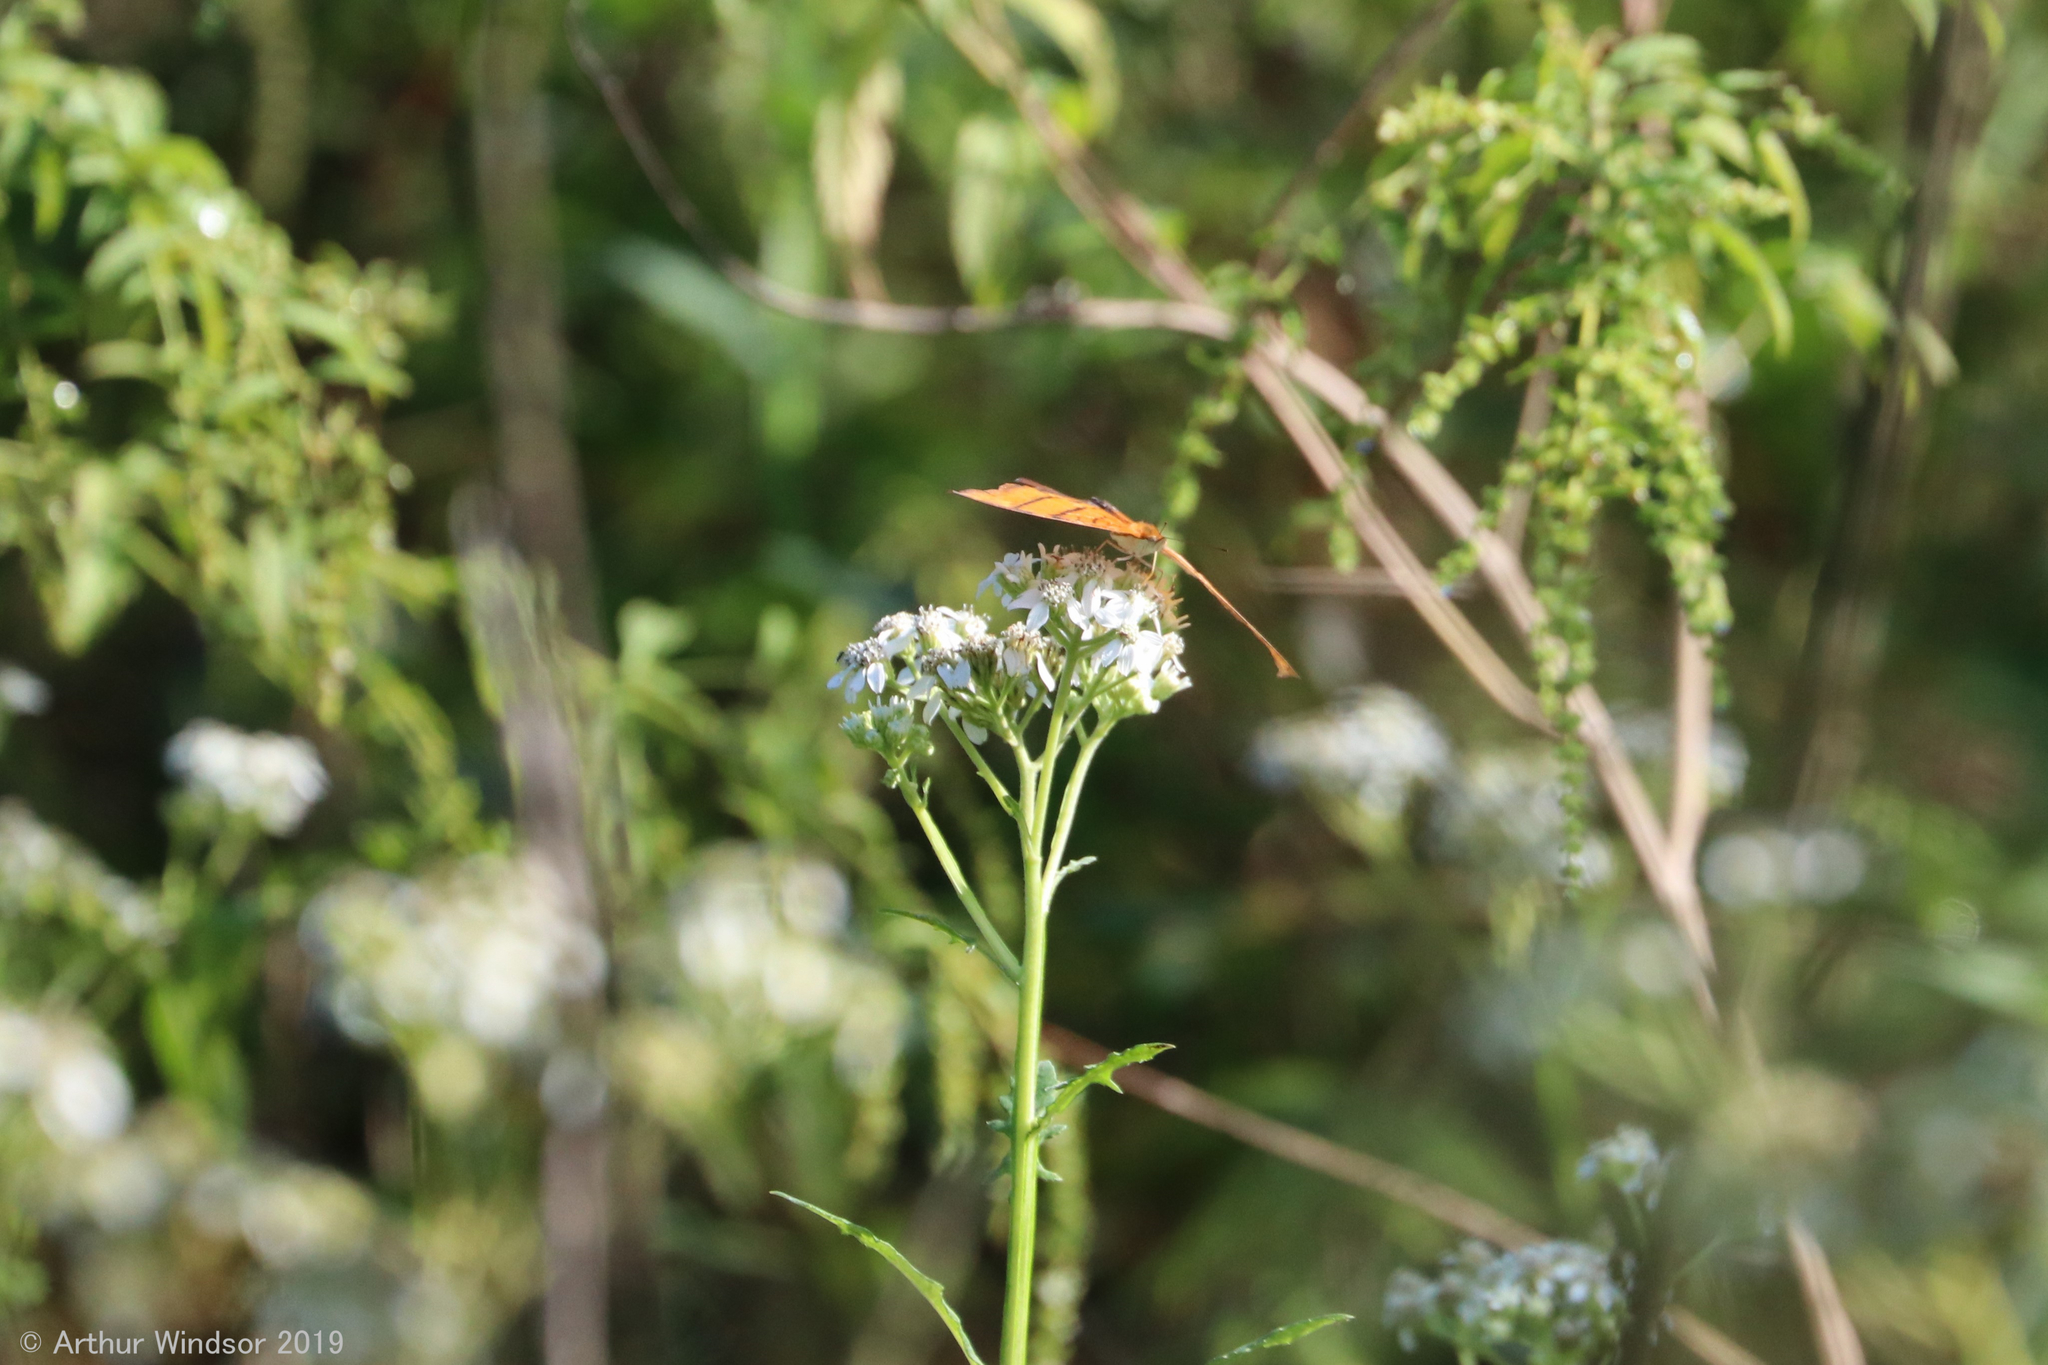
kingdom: Animalia
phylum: Arthropoda
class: Insecta
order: Lepidoptera
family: Nymphalidae
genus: Marpesia
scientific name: Marpesia petreus
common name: Red dagger wing
